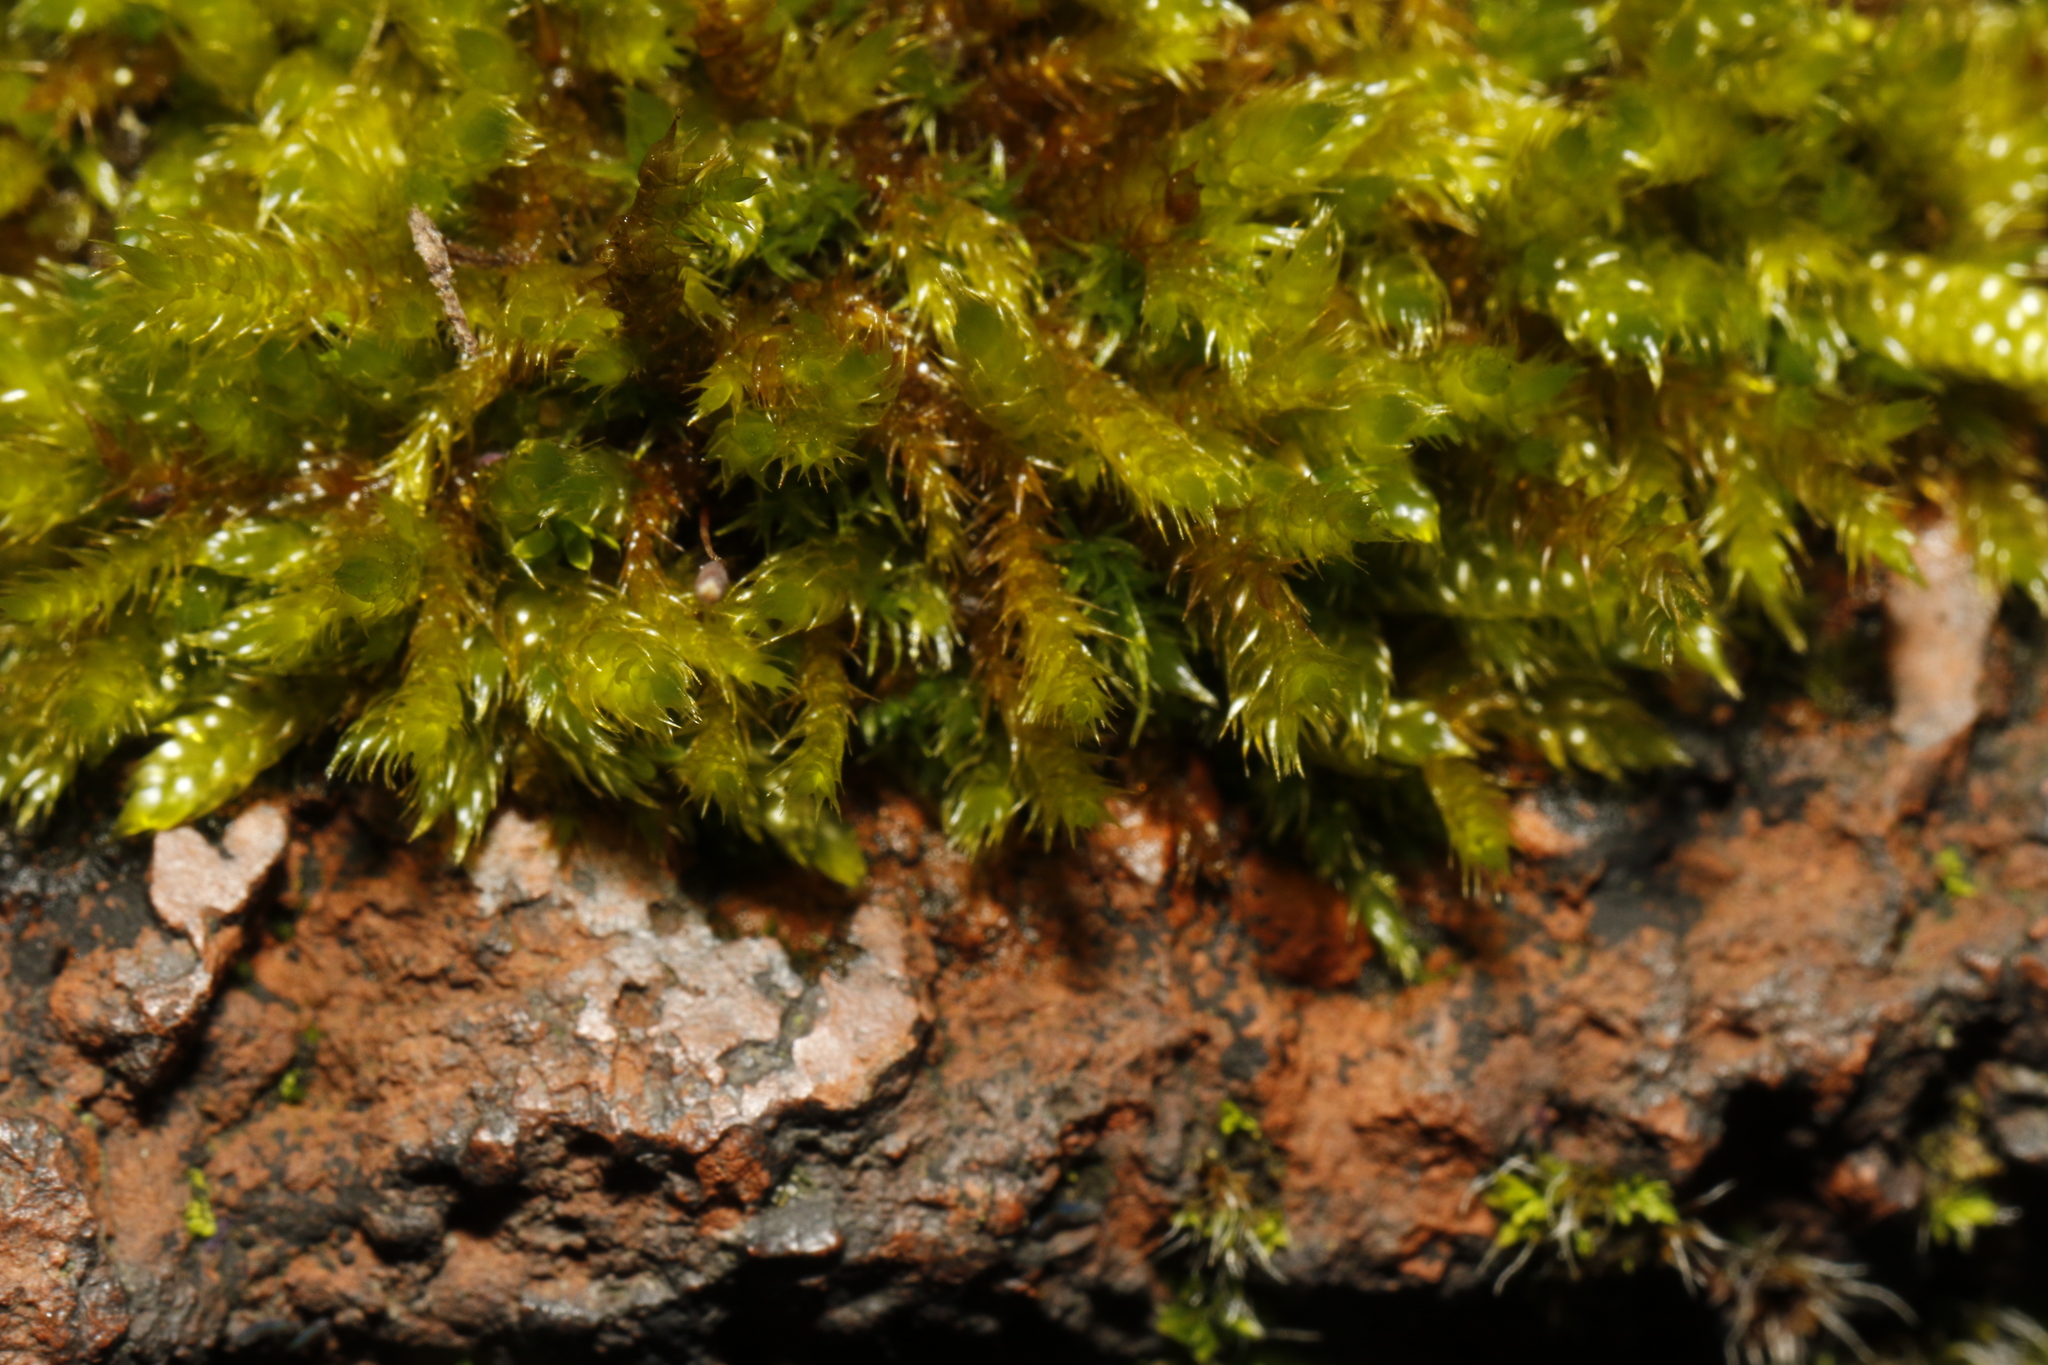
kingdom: Plantae
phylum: Bryophyta
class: Bryopsida
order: Hypnales
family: Hypnaceae
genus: Hypnum
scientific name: Hypnum cupressiforme
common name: Cypress-leaved plait-moss
